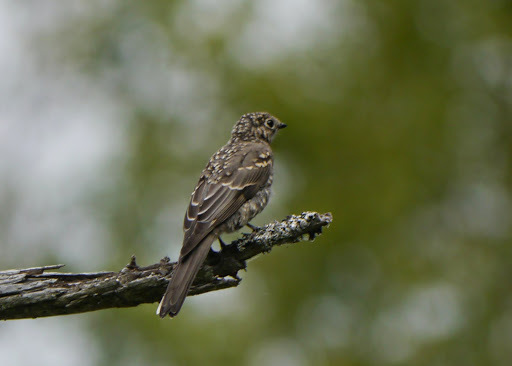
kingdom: Animalia
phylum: Chordata
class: Aves
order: Passeriformes
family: Turdidae
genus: Myadestes
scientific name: Myadestes townsendi
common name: Townsend's solitaire
